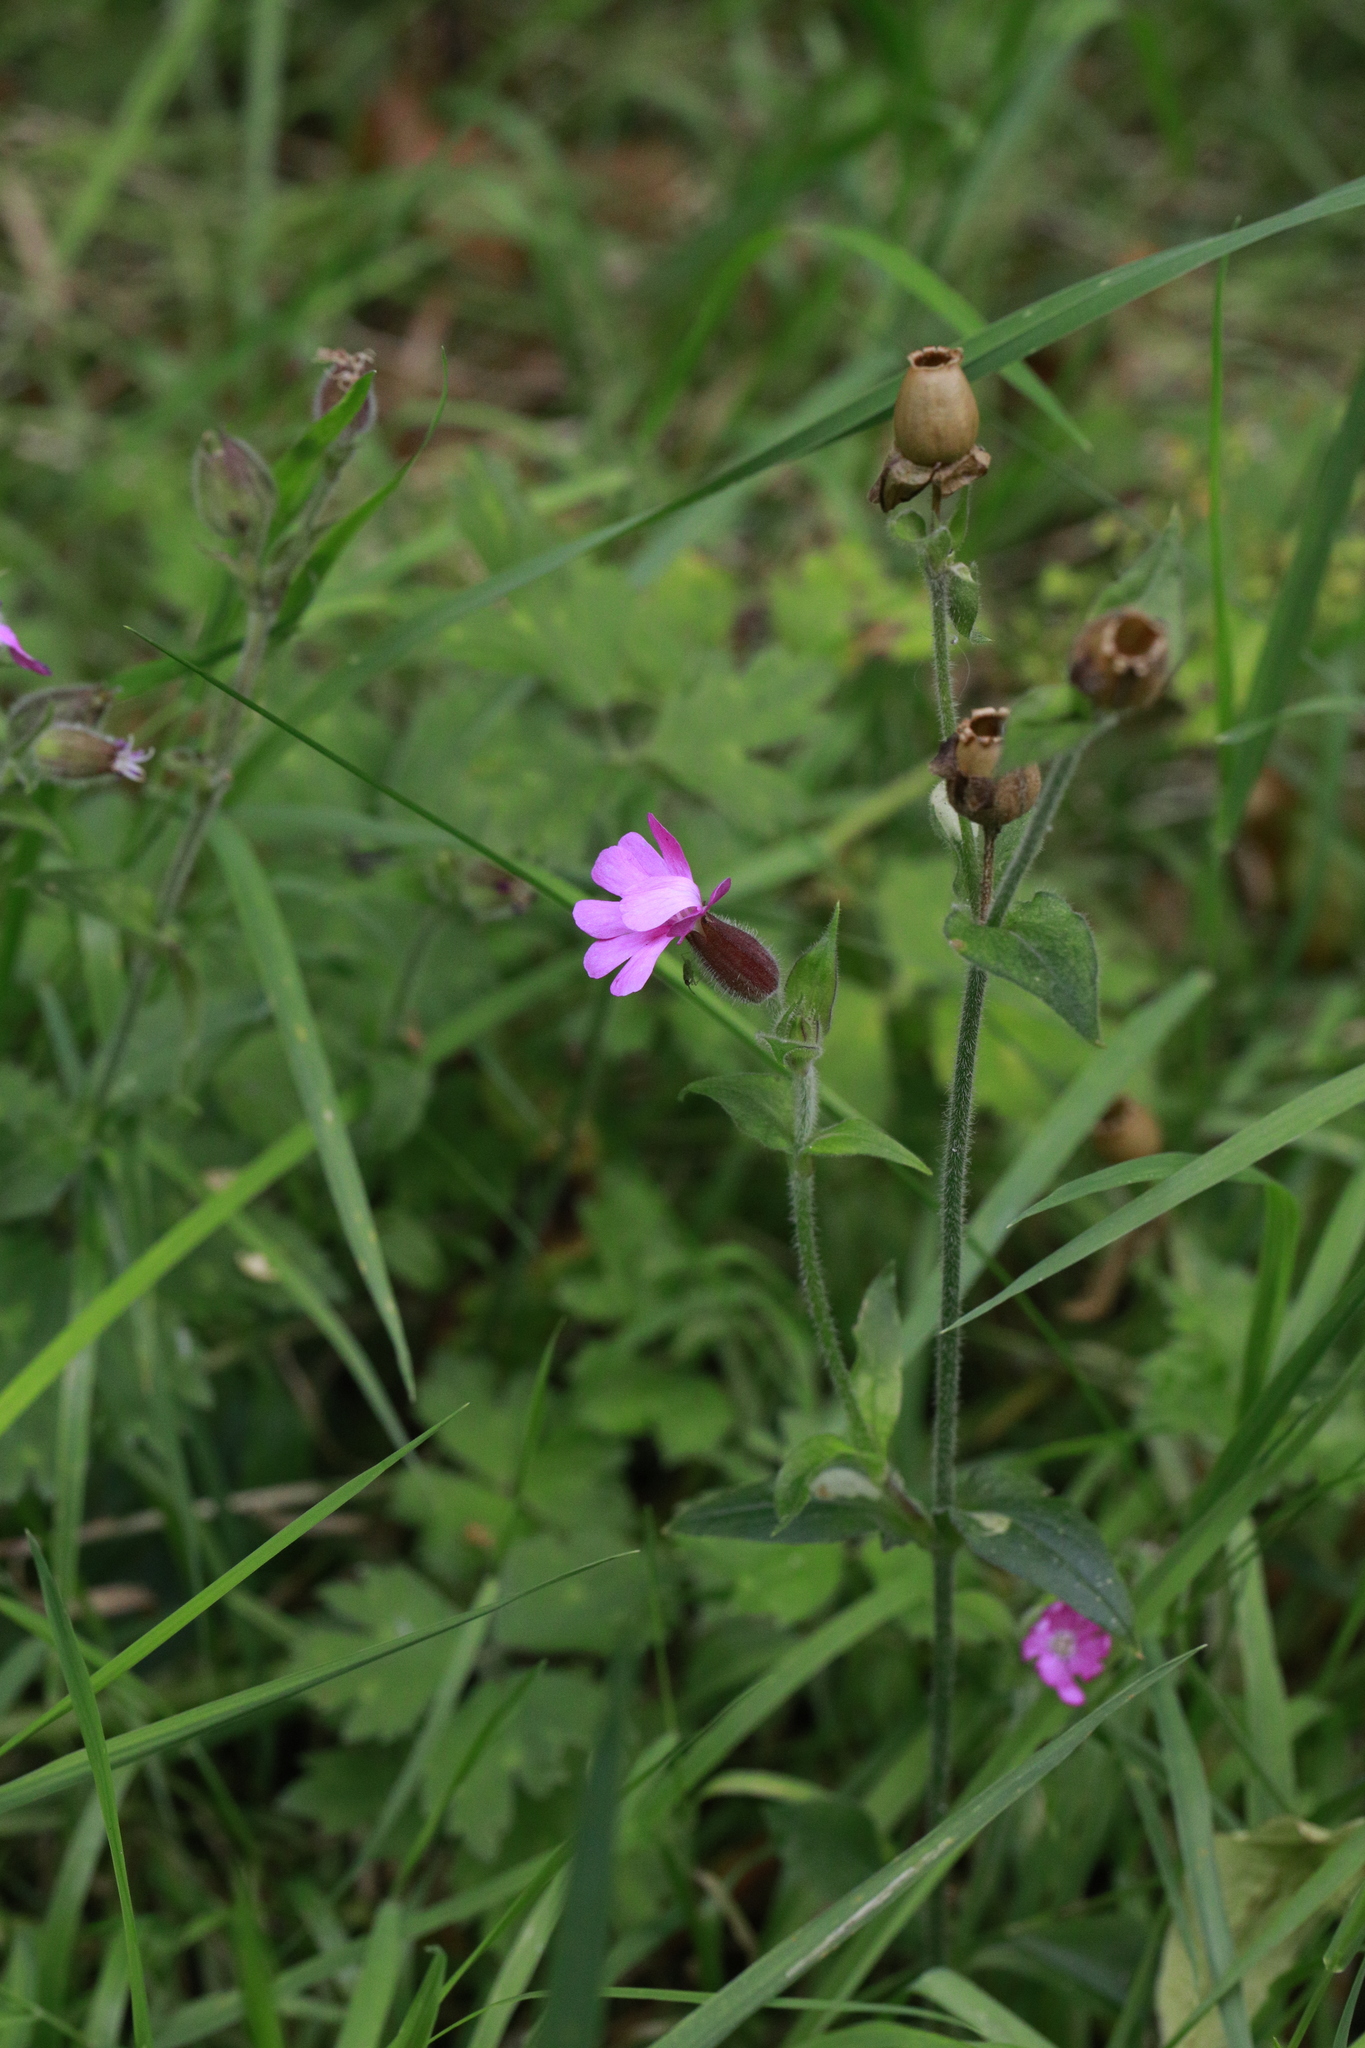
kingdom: Plantae
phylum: Tracheophyta
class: Magnoliopsida
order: Caryophyllales
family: Caryophyllaceae
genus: Silene
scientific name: Silene dioica
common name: Red campion
